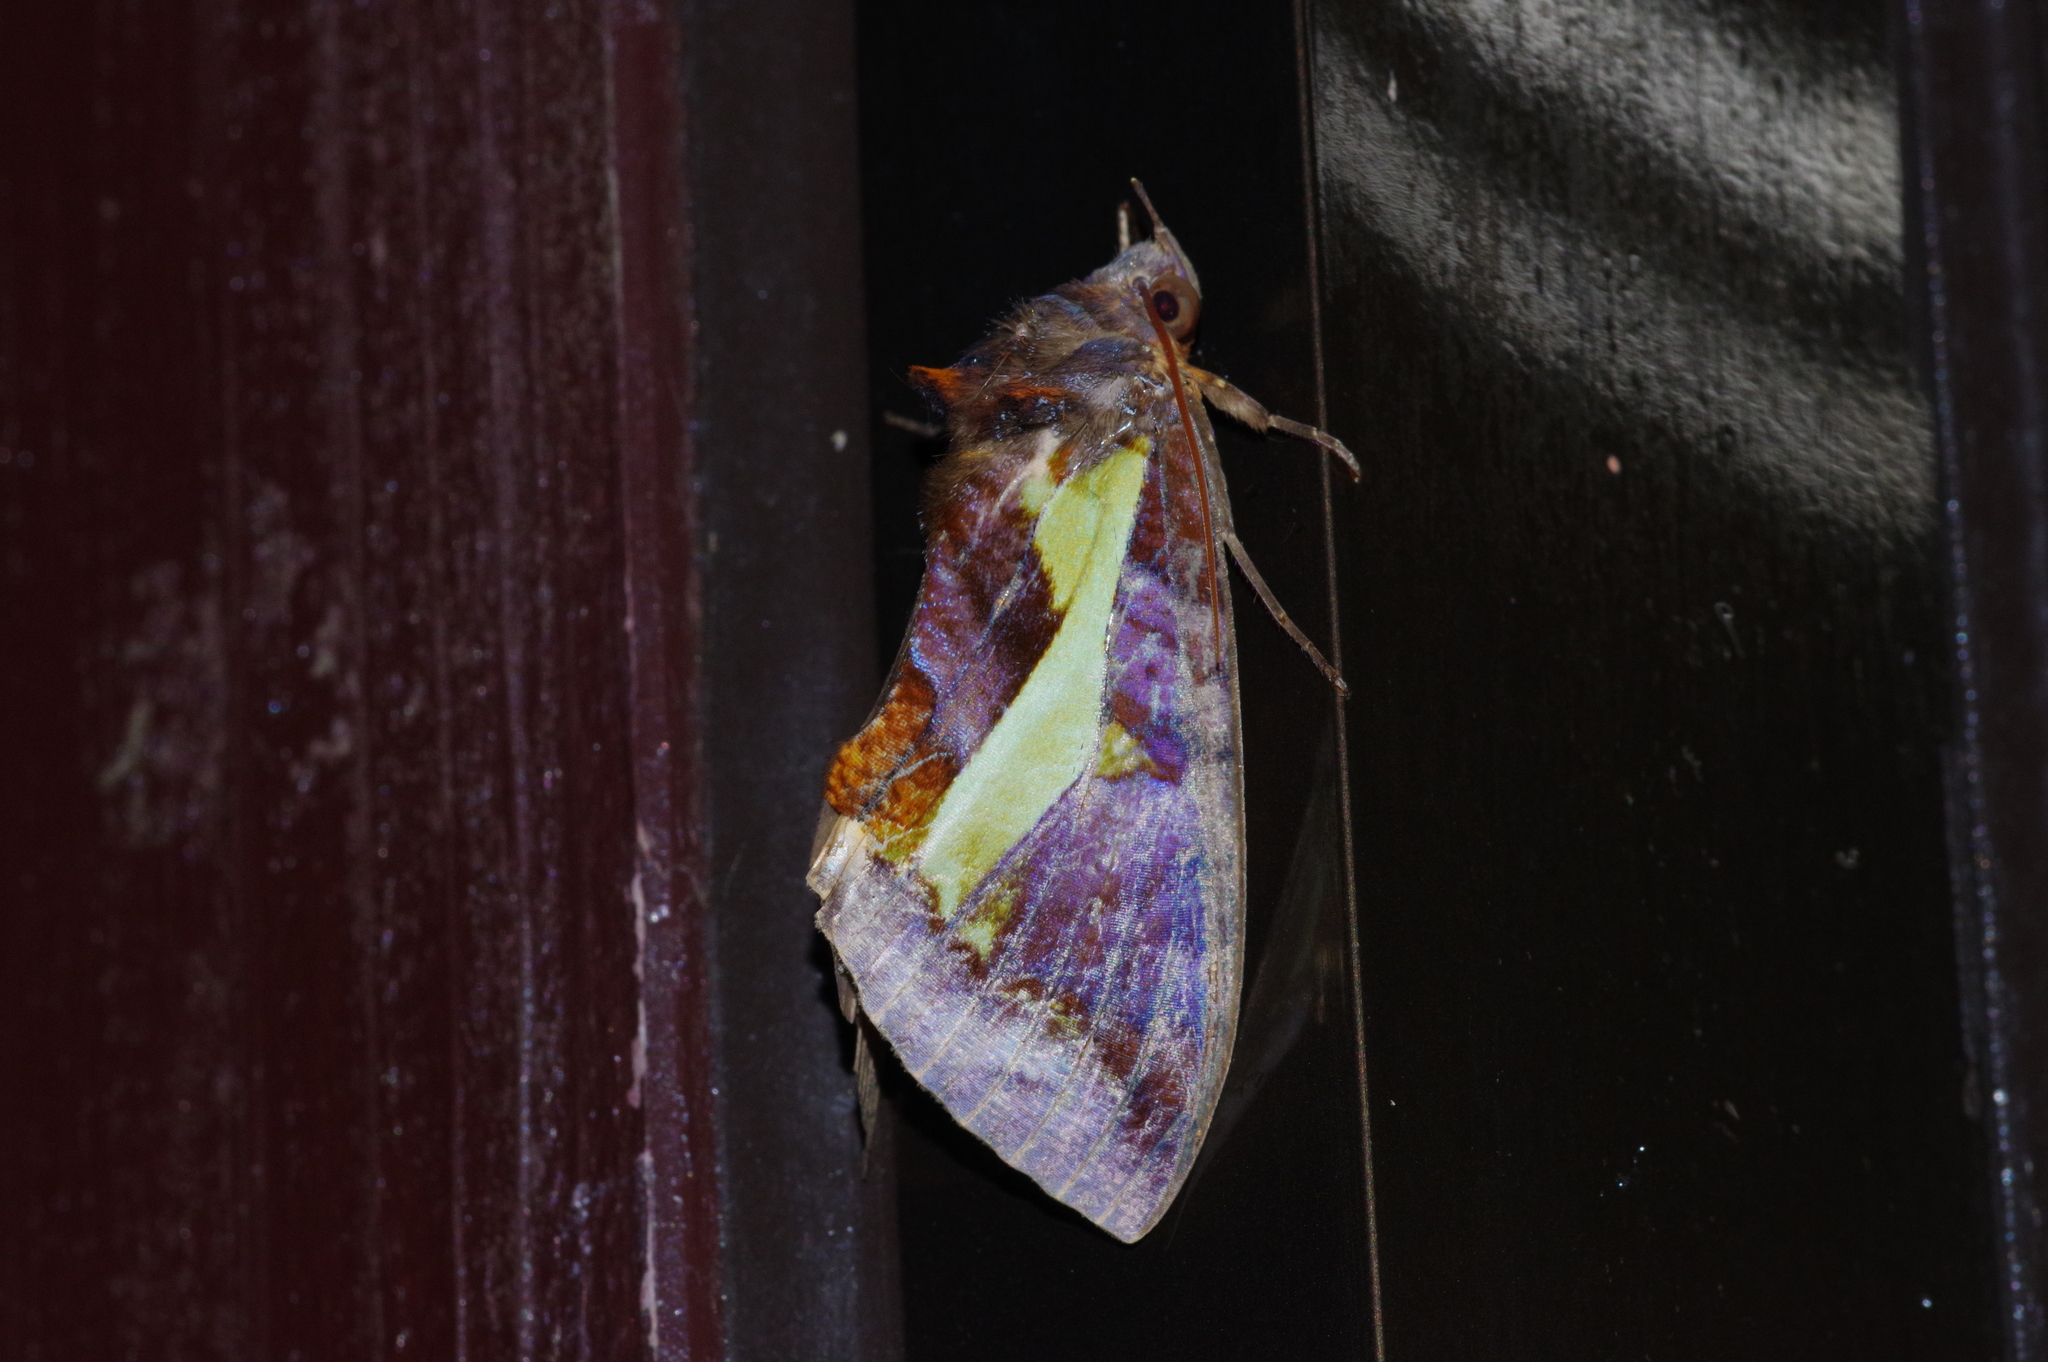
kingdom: Animalia
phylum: Arthropoda
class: Insecta
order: Lepidoptera
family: Erebidae
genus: Eudocima
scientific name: Eudocima homaena
